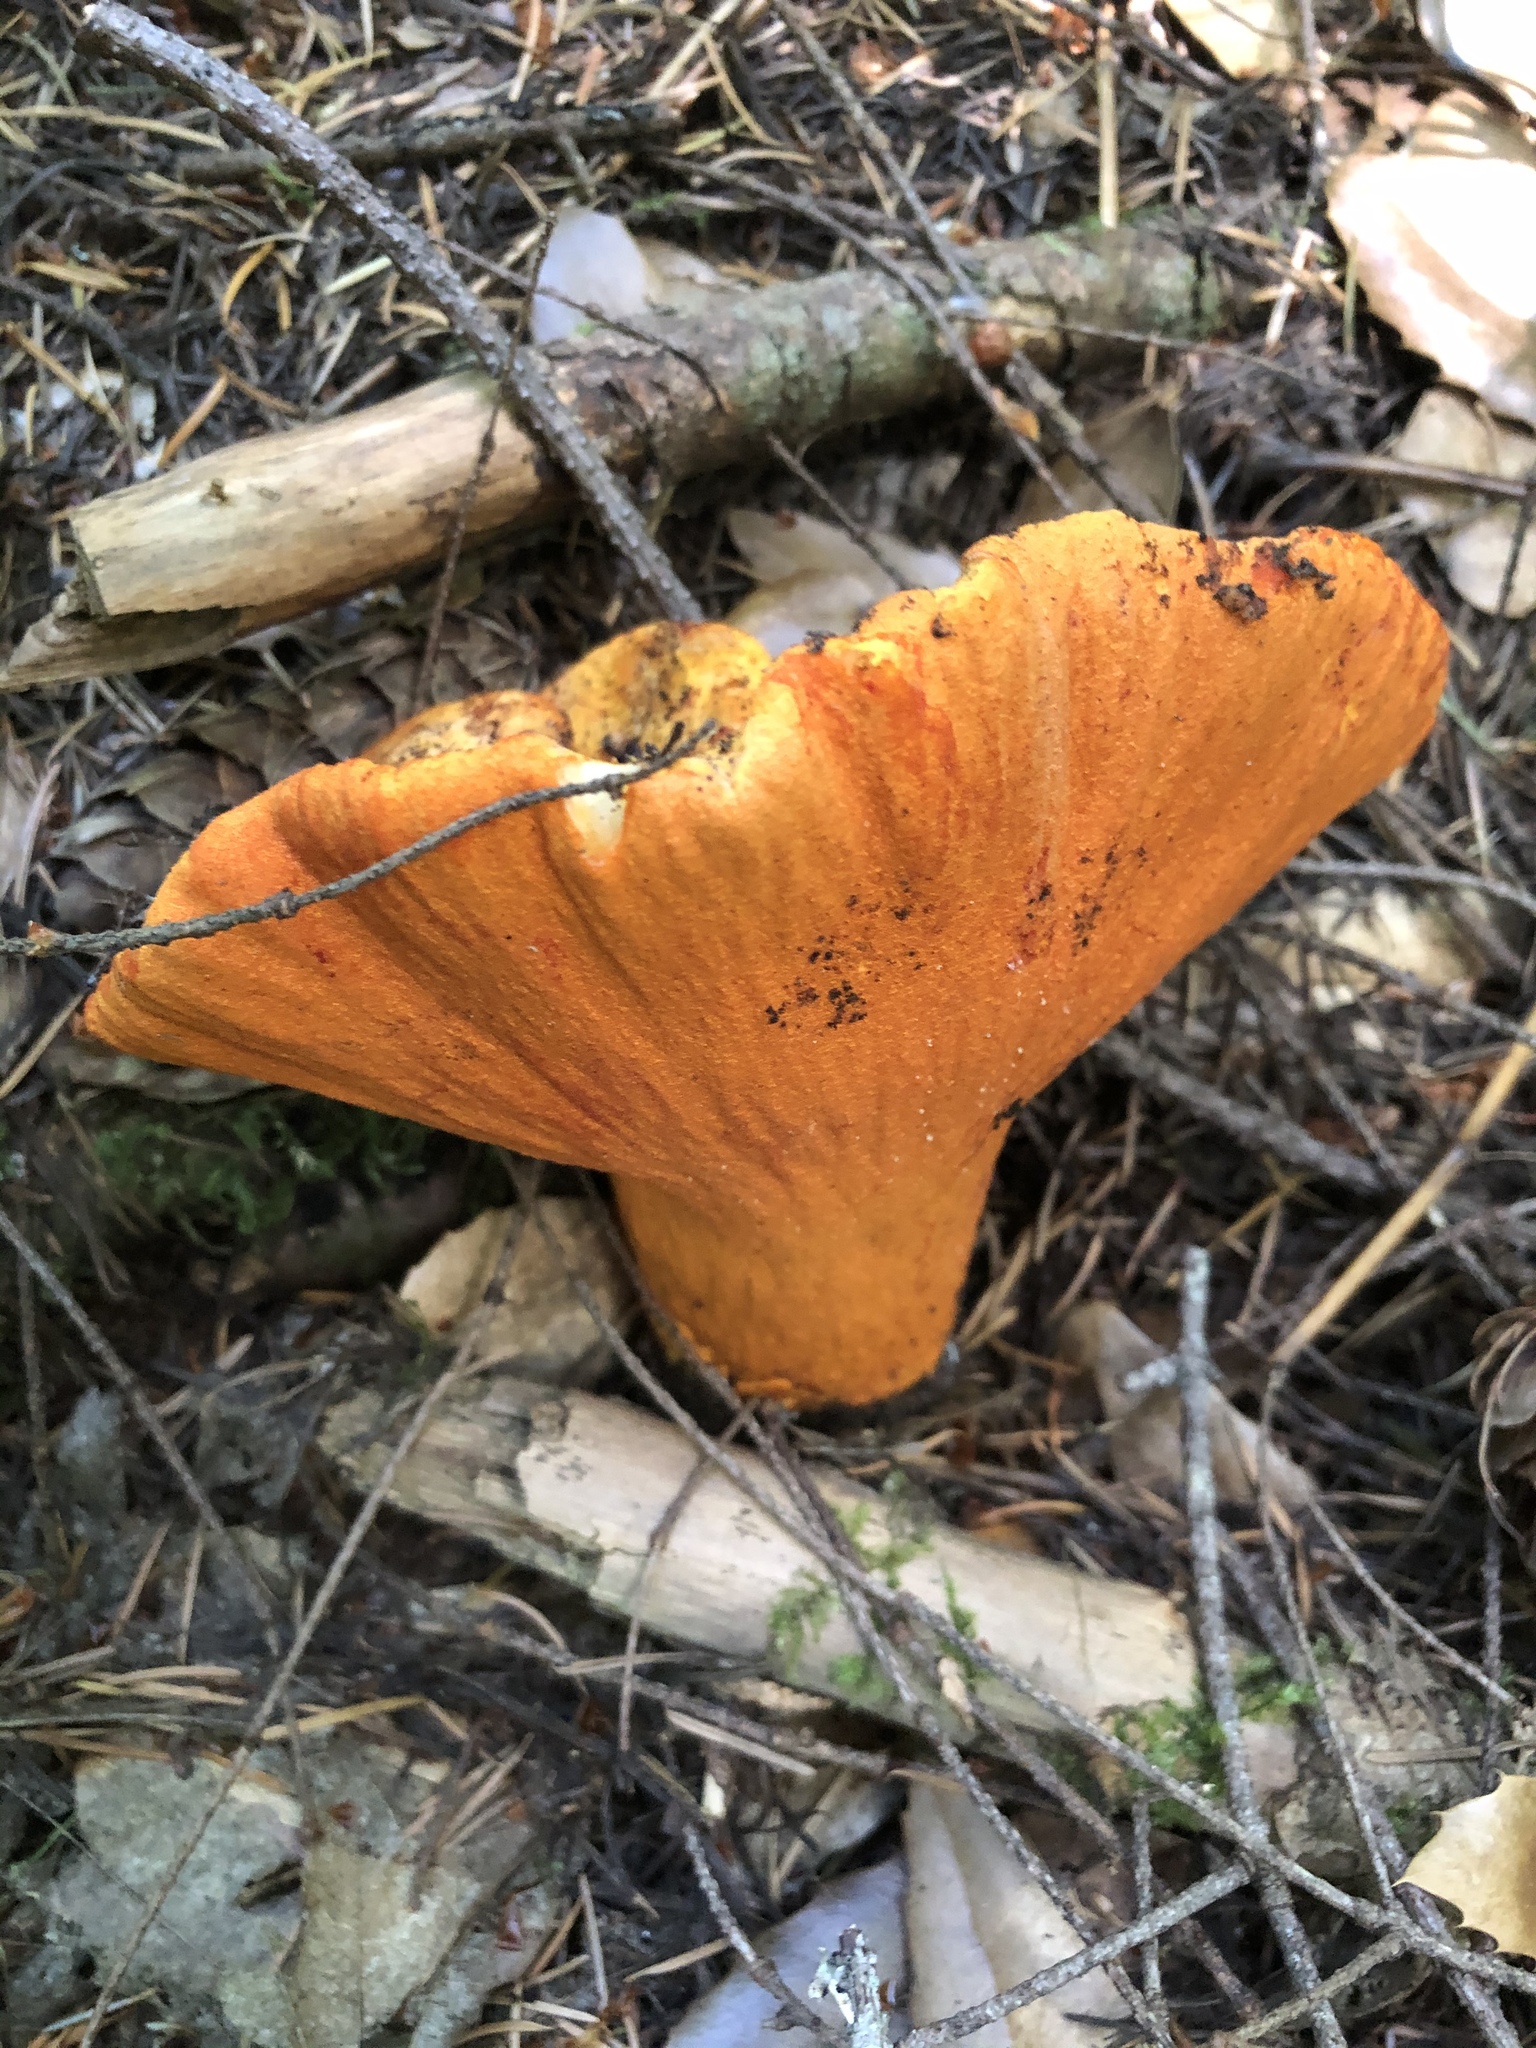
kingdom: Fungi
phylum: Ascomycota
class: Sordariomycetes
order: Hypocreales
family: Hypocreaceae
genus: Hypomyces
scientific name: Hypomyces lactifluorum
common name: Lobster mushroom
